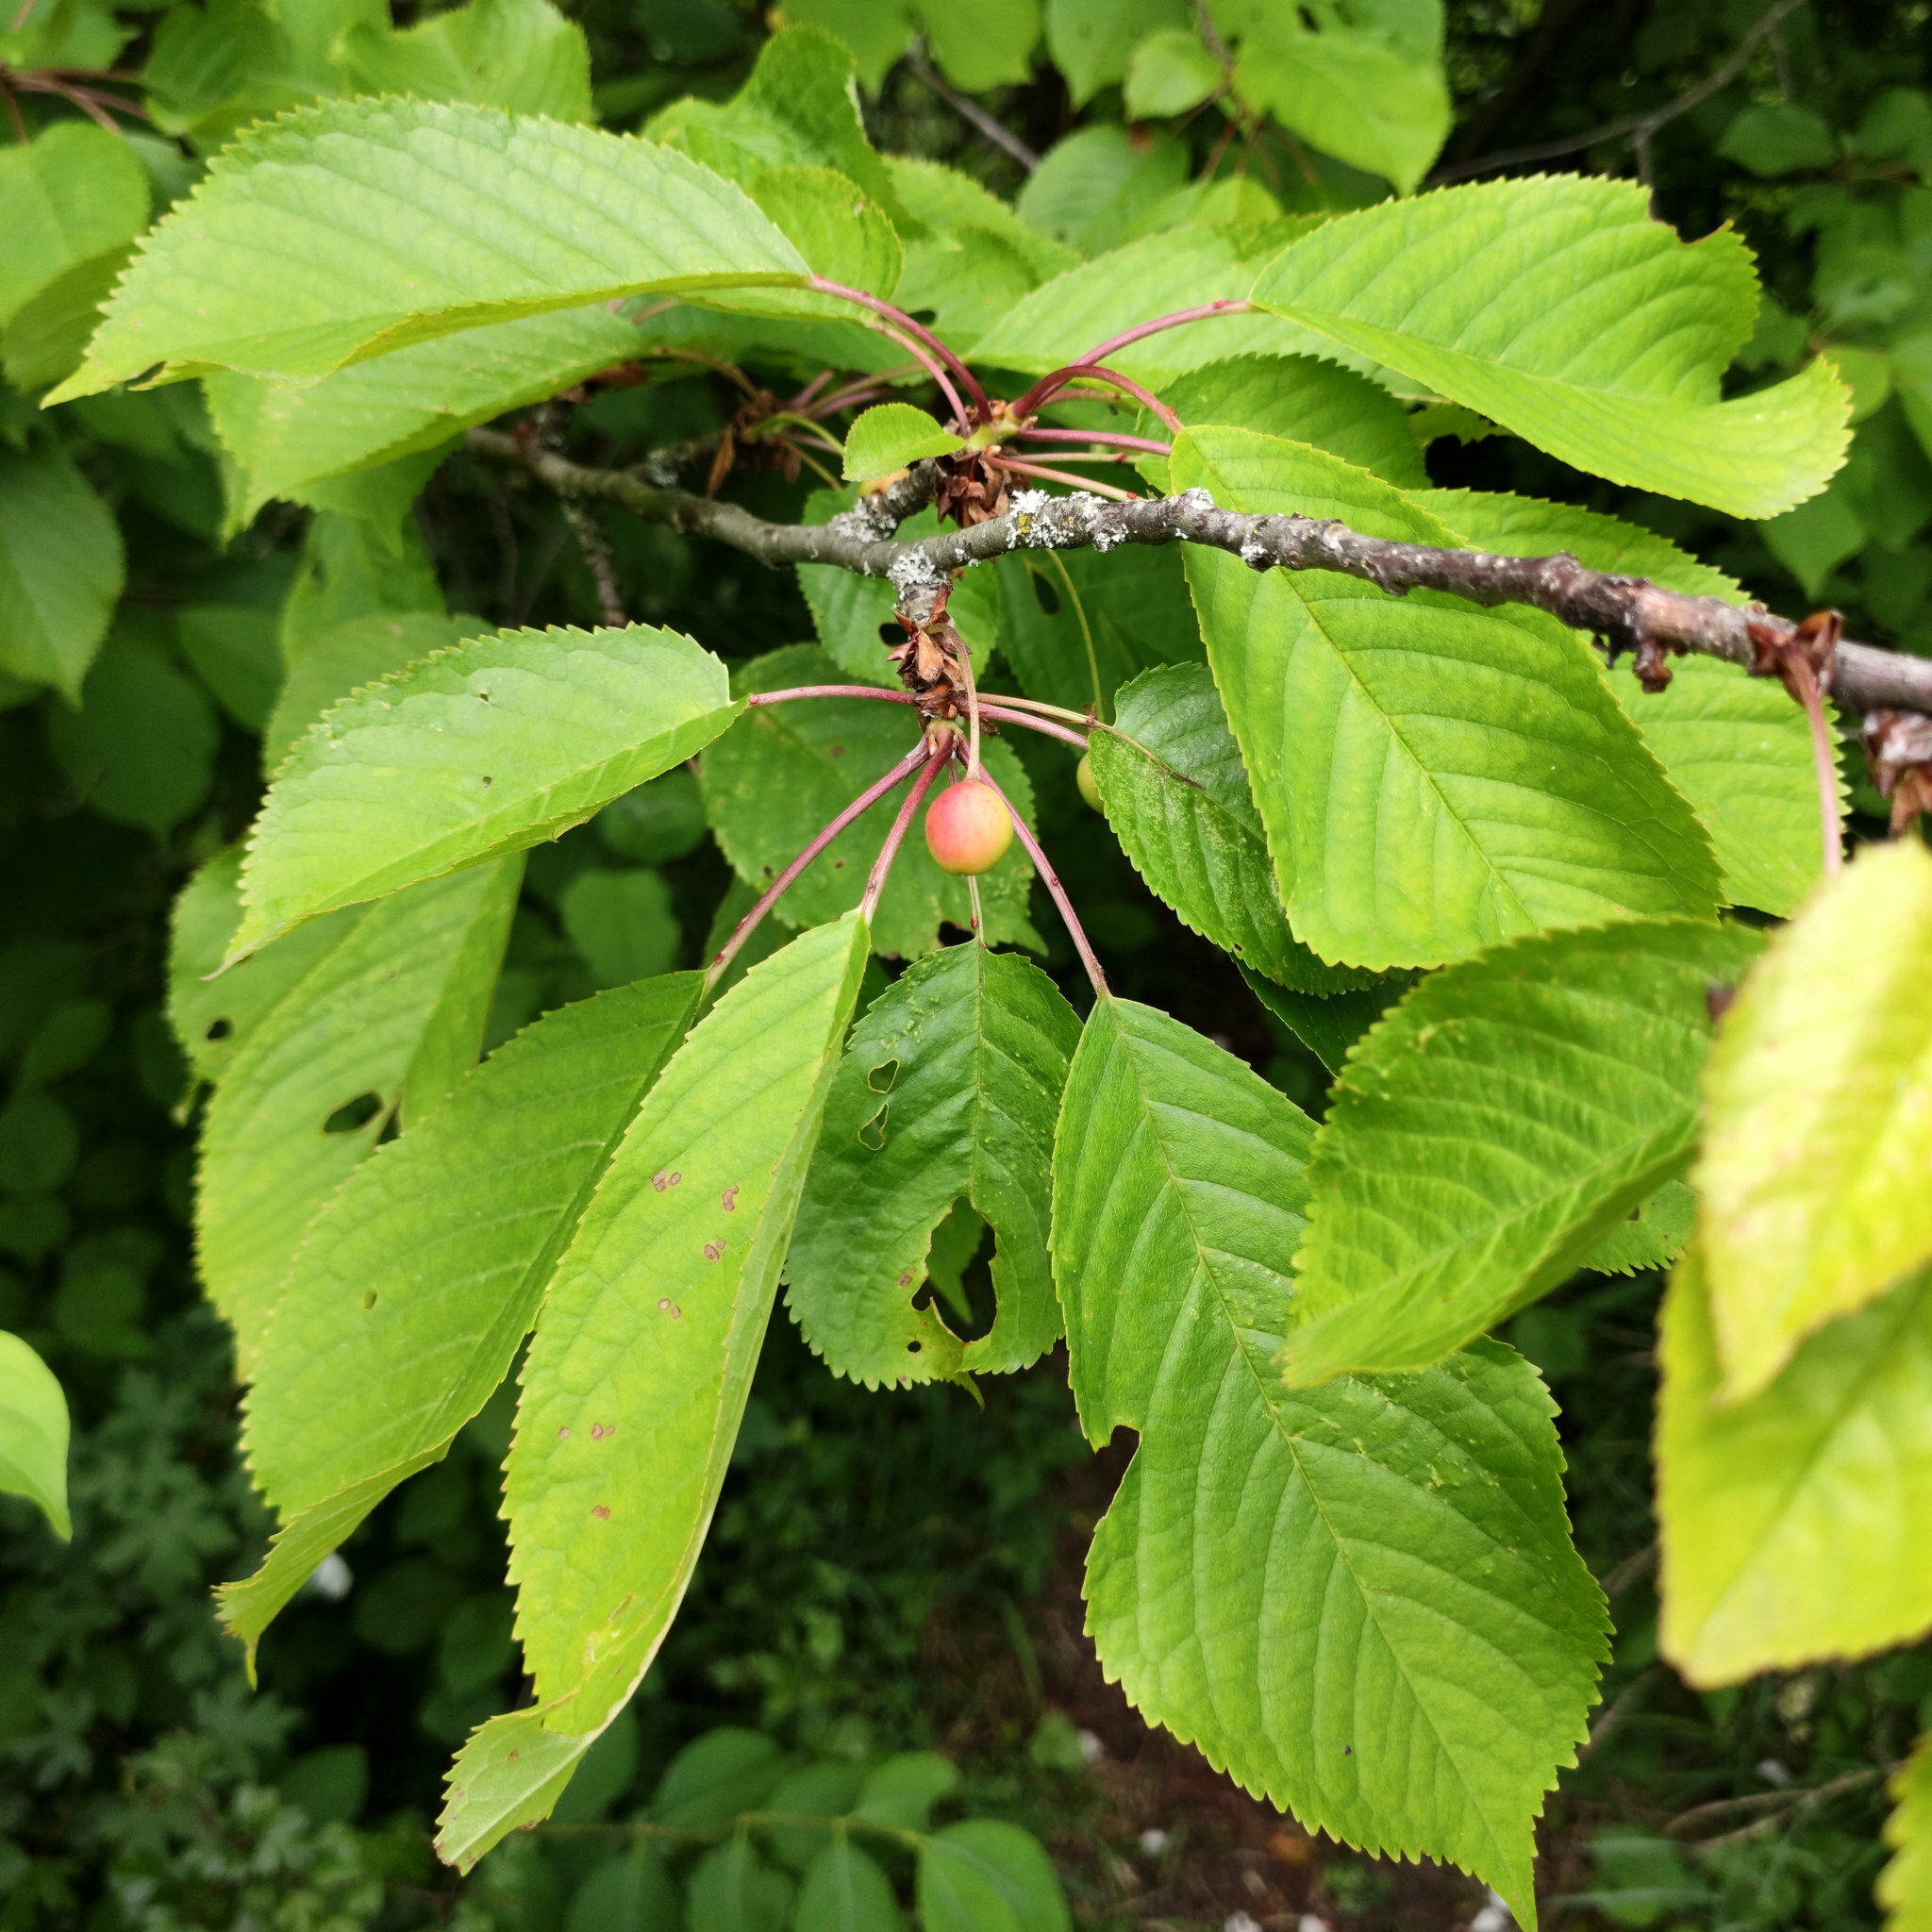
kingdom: Plantae
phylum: Tracheophyta
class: Magnoliopsida
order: Rosales
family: Rosaceae
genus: Prunus
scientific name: Prunus avium
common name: Sweet cherry
